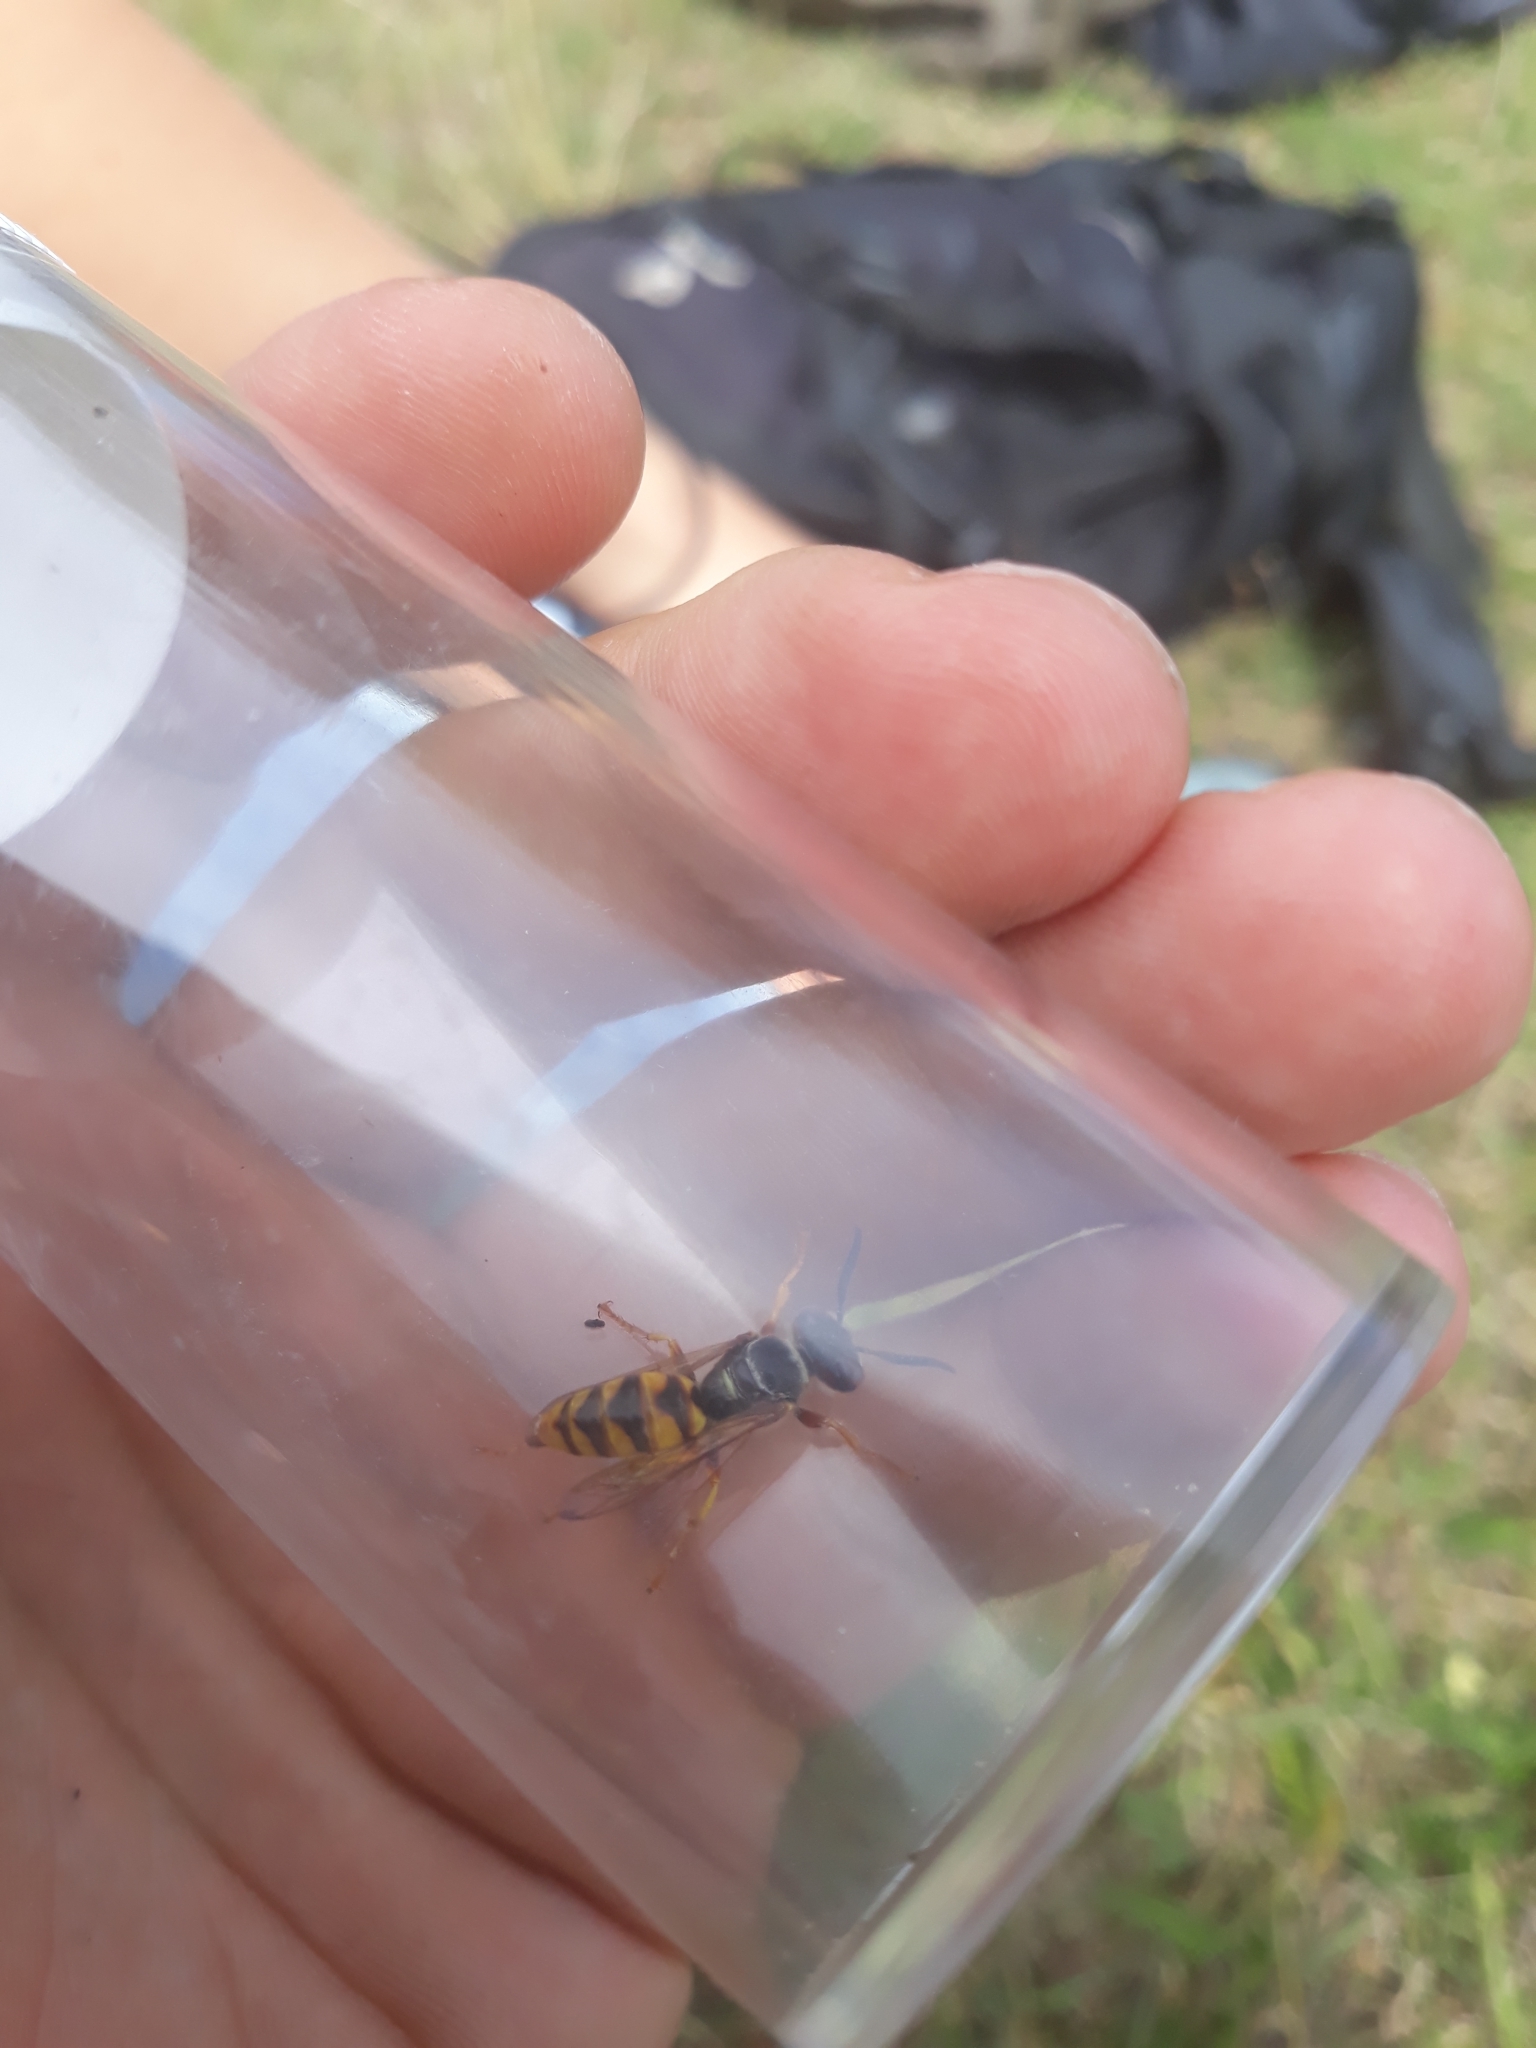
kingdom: Animalia
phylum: Arthropoda
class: Insecta
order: Hymenoptera
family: Crabronidae
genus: Philanthus
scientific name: Philanthus triangulum
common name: Bee wolf
